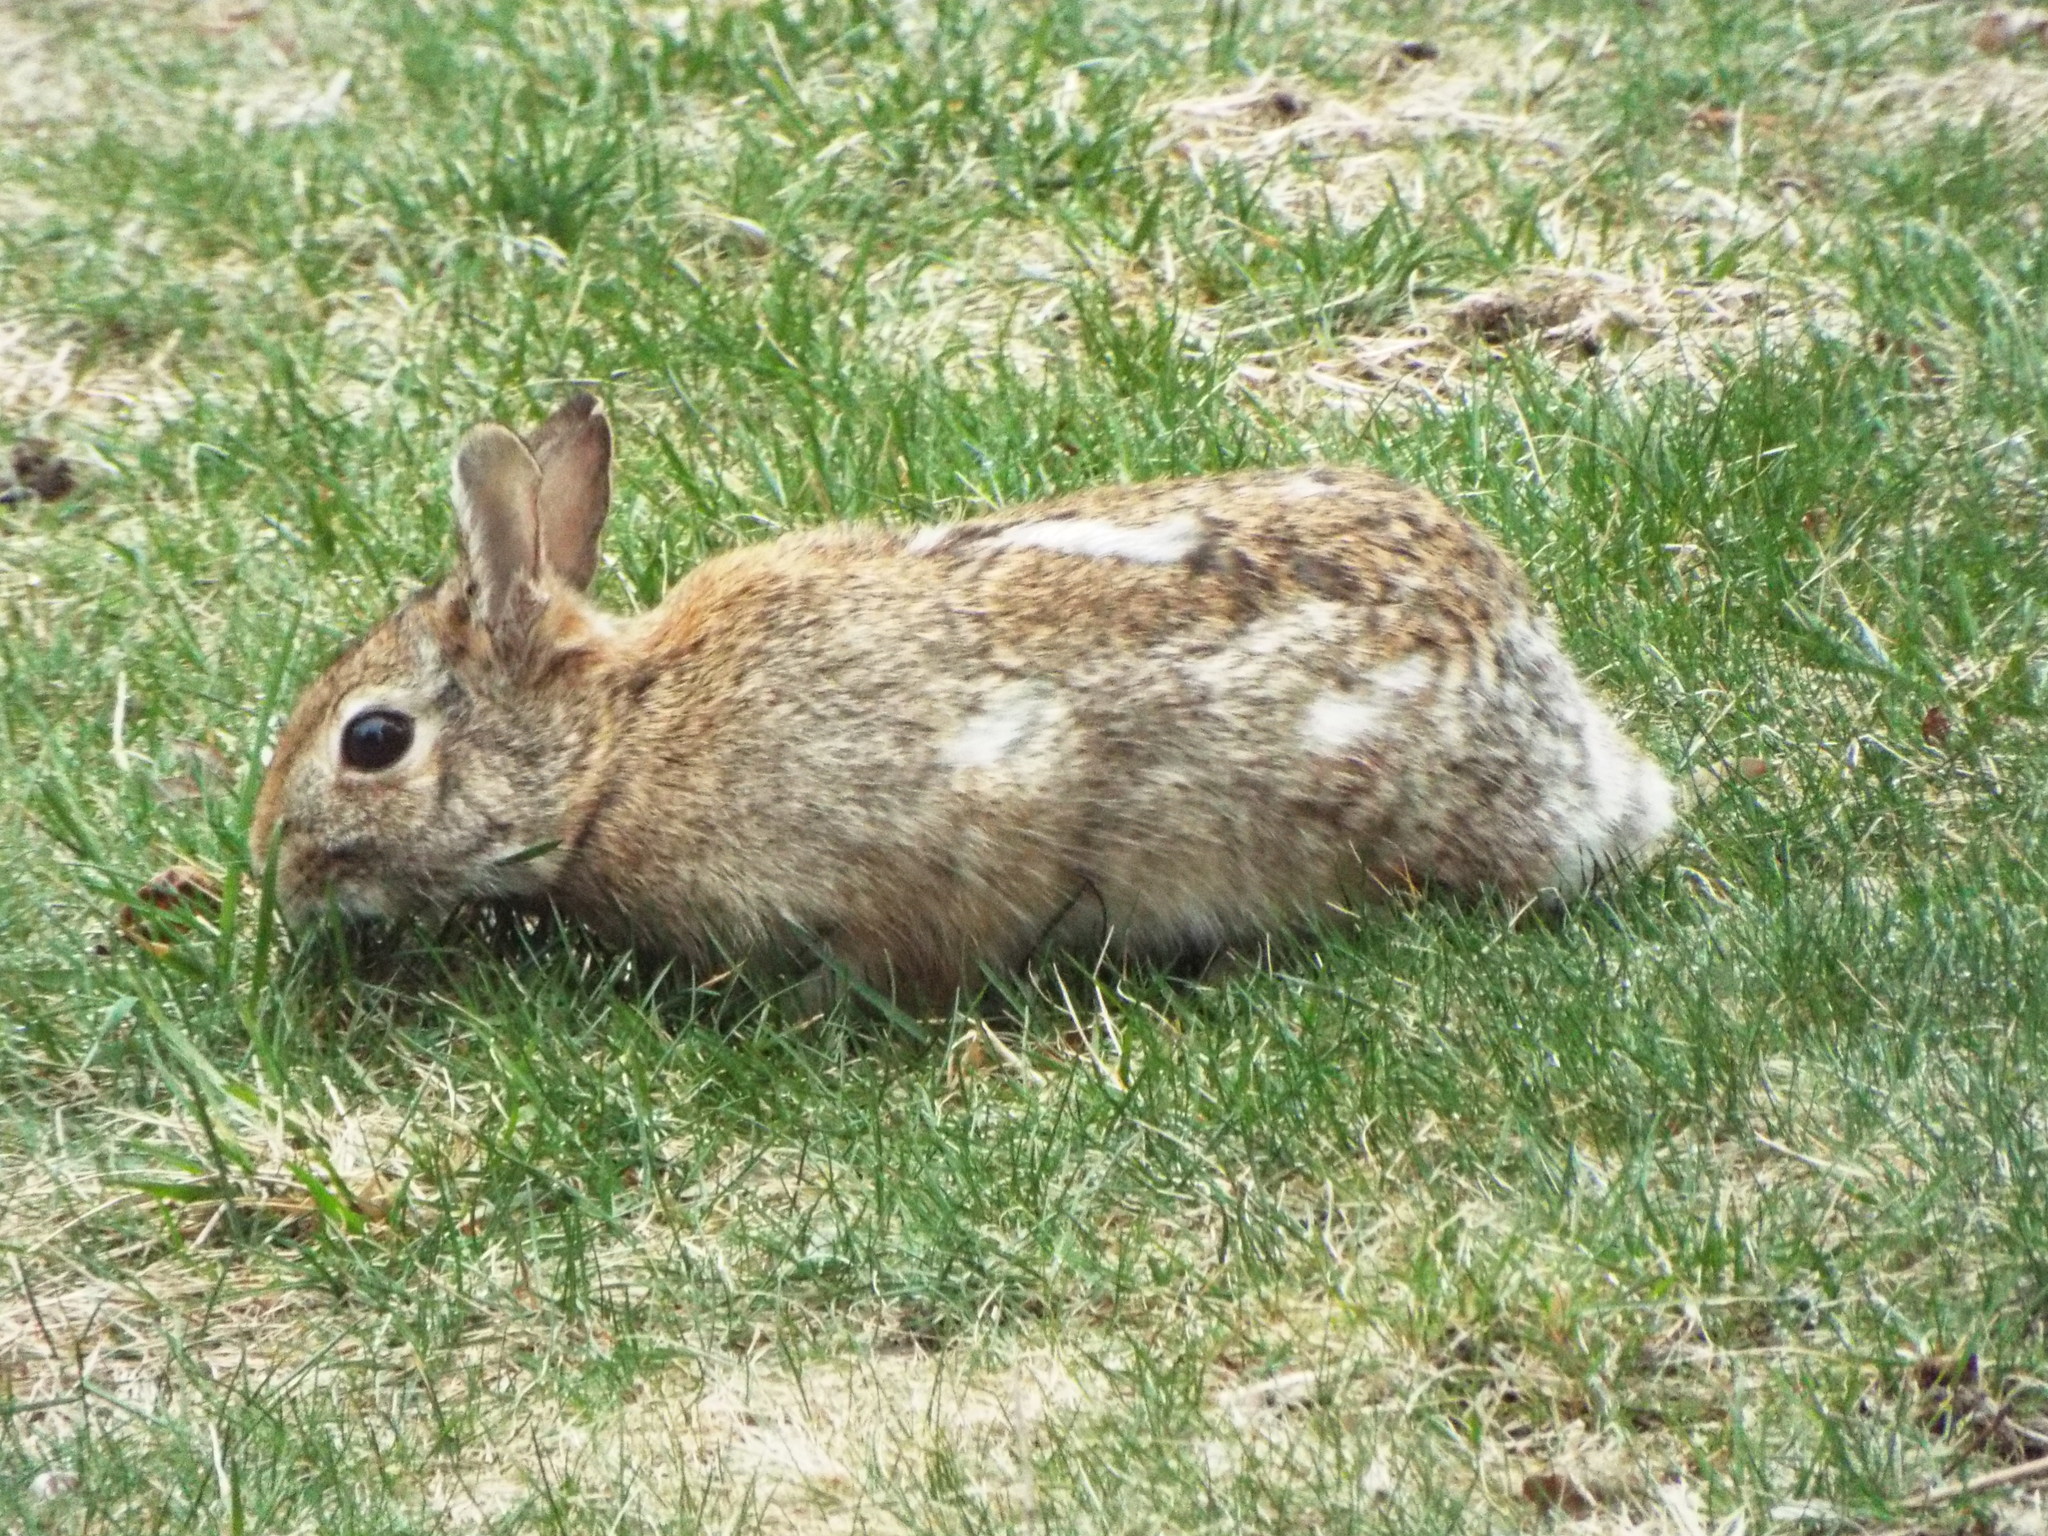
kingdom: Animalia
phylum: Chordata
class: Mammalia
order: Lagomorpha
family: Leporidae
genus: Sylvilagus
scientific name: Sylvilagus floridanus
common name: Eastern cottontail
